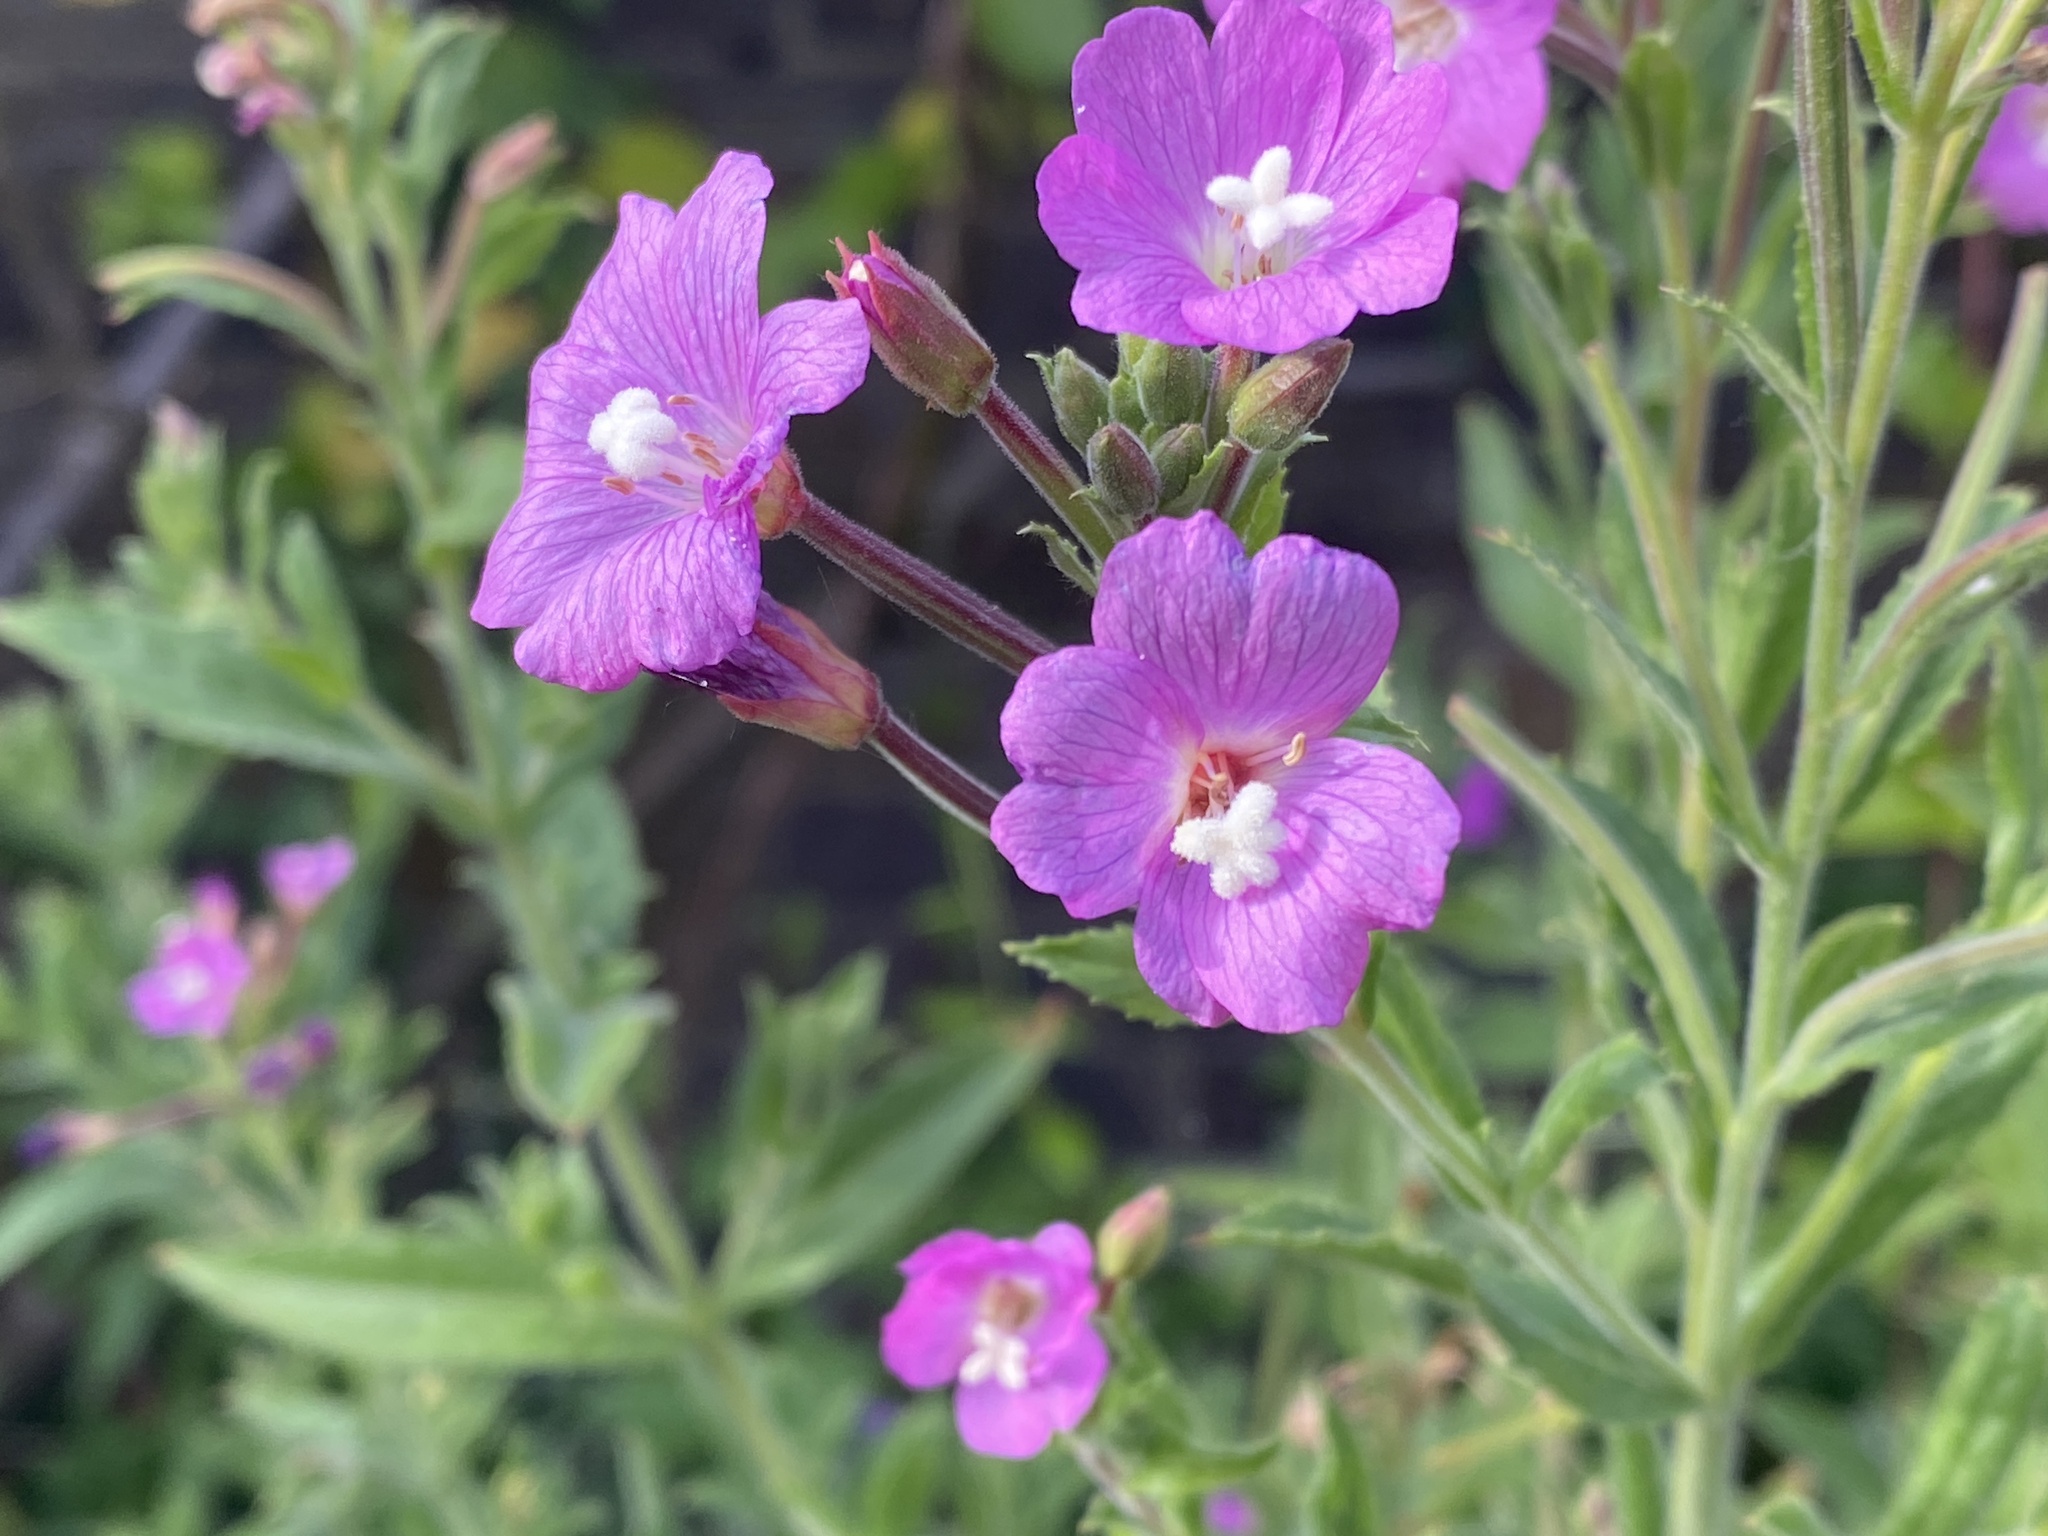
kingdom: Plantae
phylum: Tracheophyta
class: Magnoliopsida
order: Myrtales
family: Onagraceae
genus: Epilobium
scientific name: Epilobium hirsutum
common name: Great willowherb
